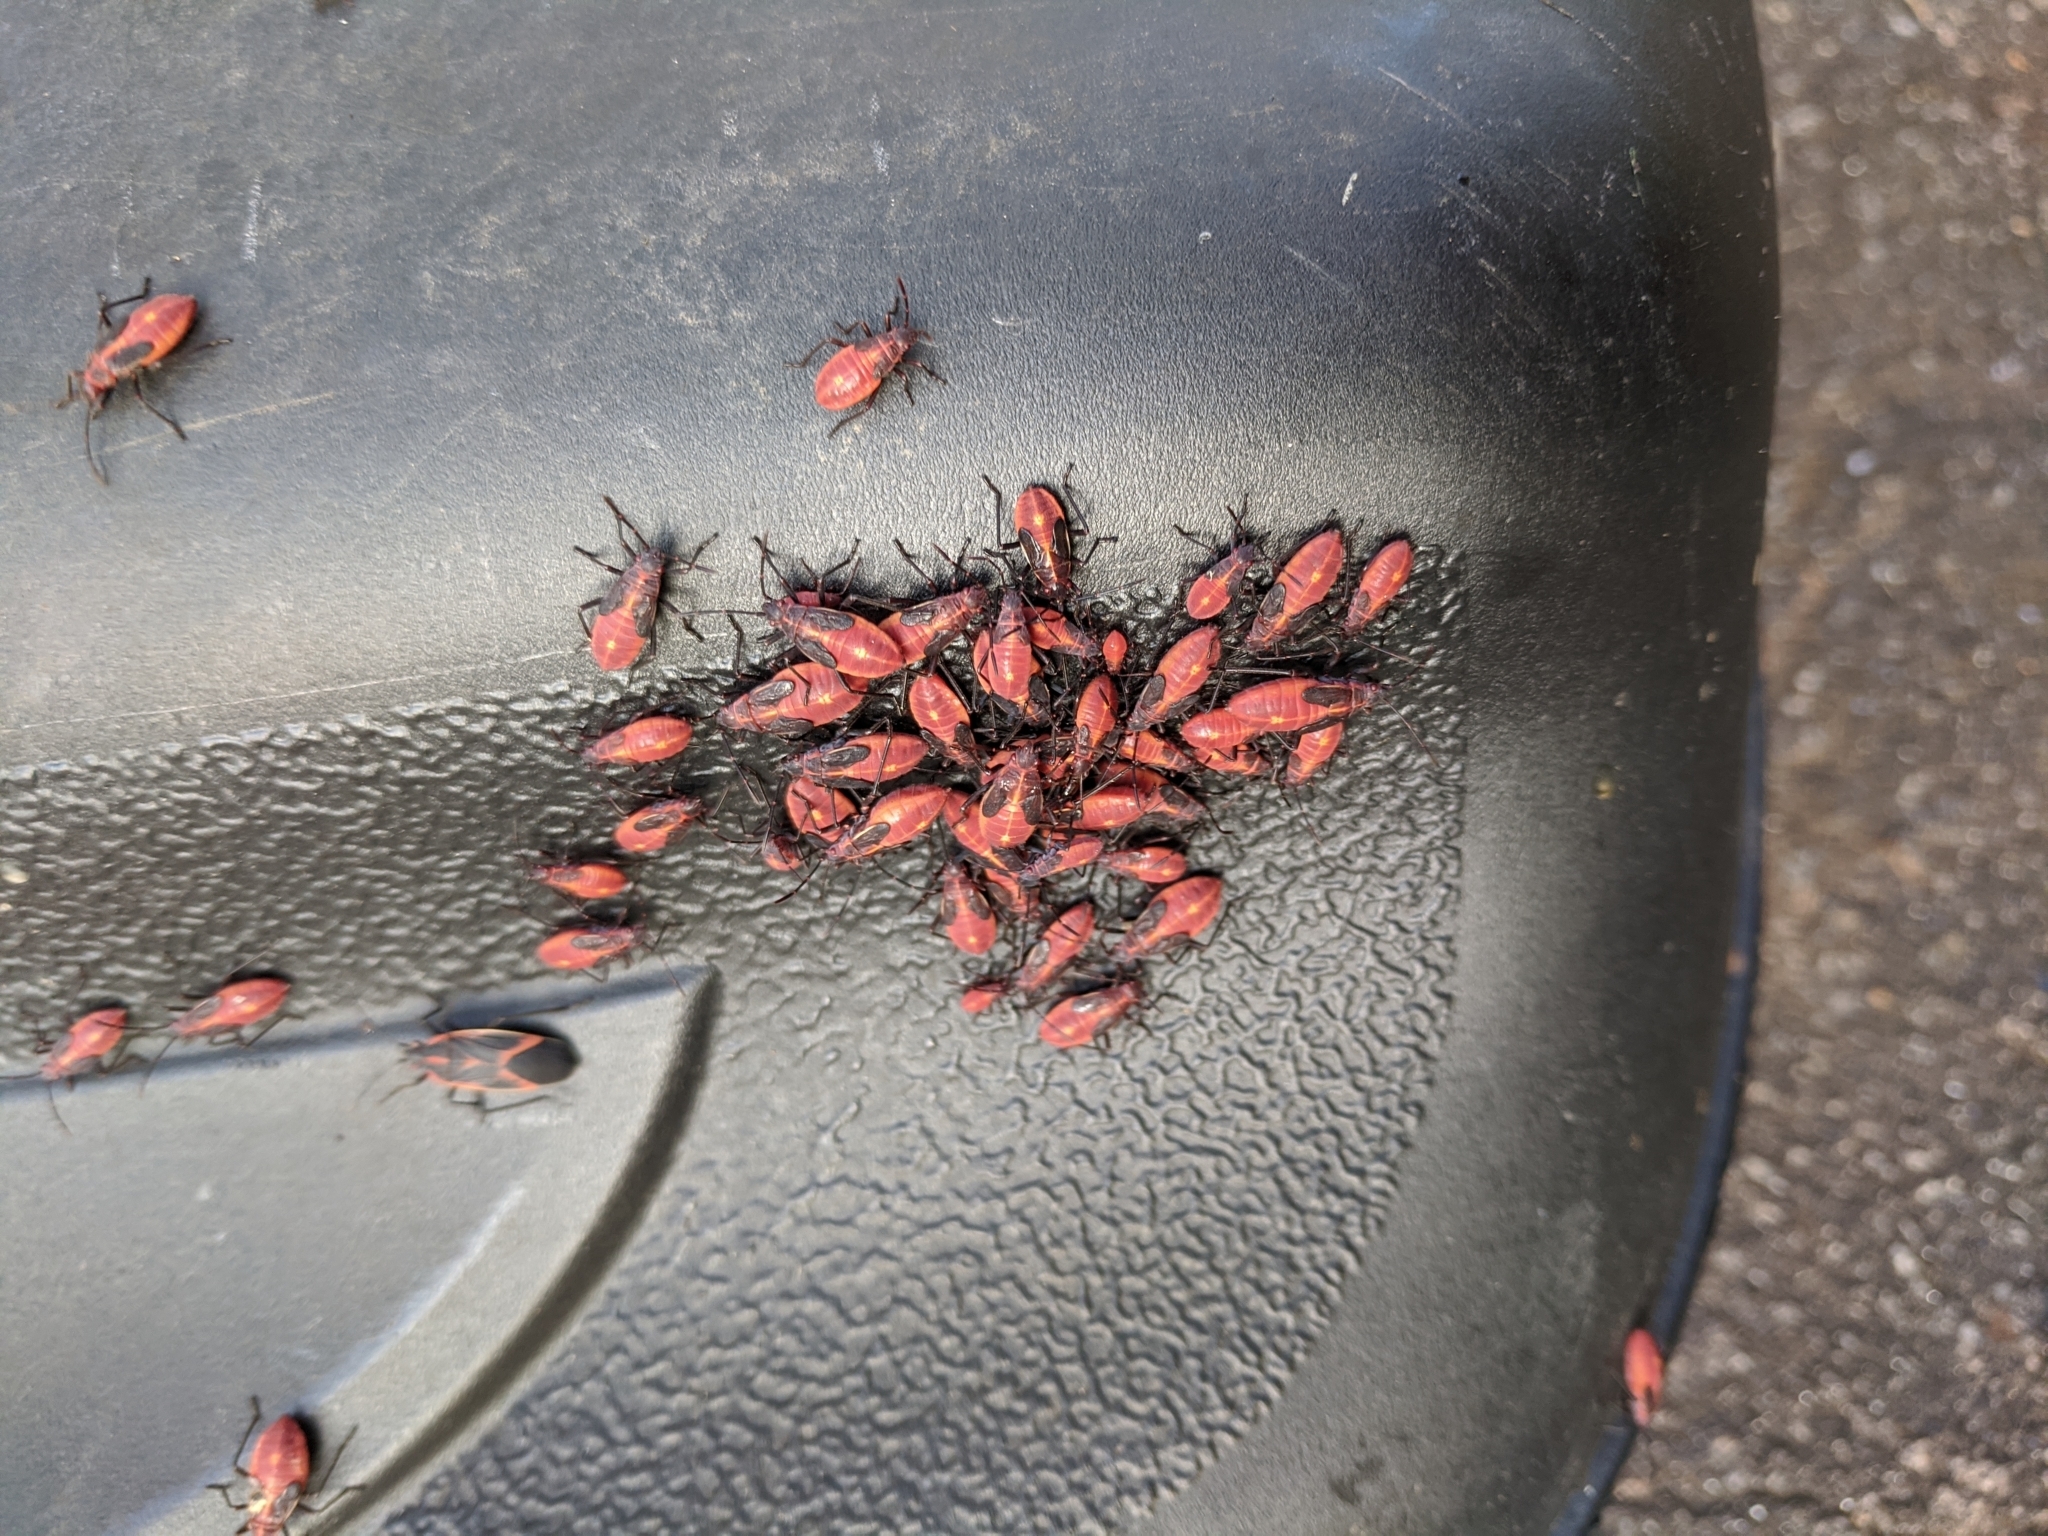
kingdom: Animalia
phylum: Arthropoda
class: Insecta
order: Hemiptera
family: Rhopalidae
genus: Boisea
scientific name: Boisea trivittata
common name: Boxelder bug
